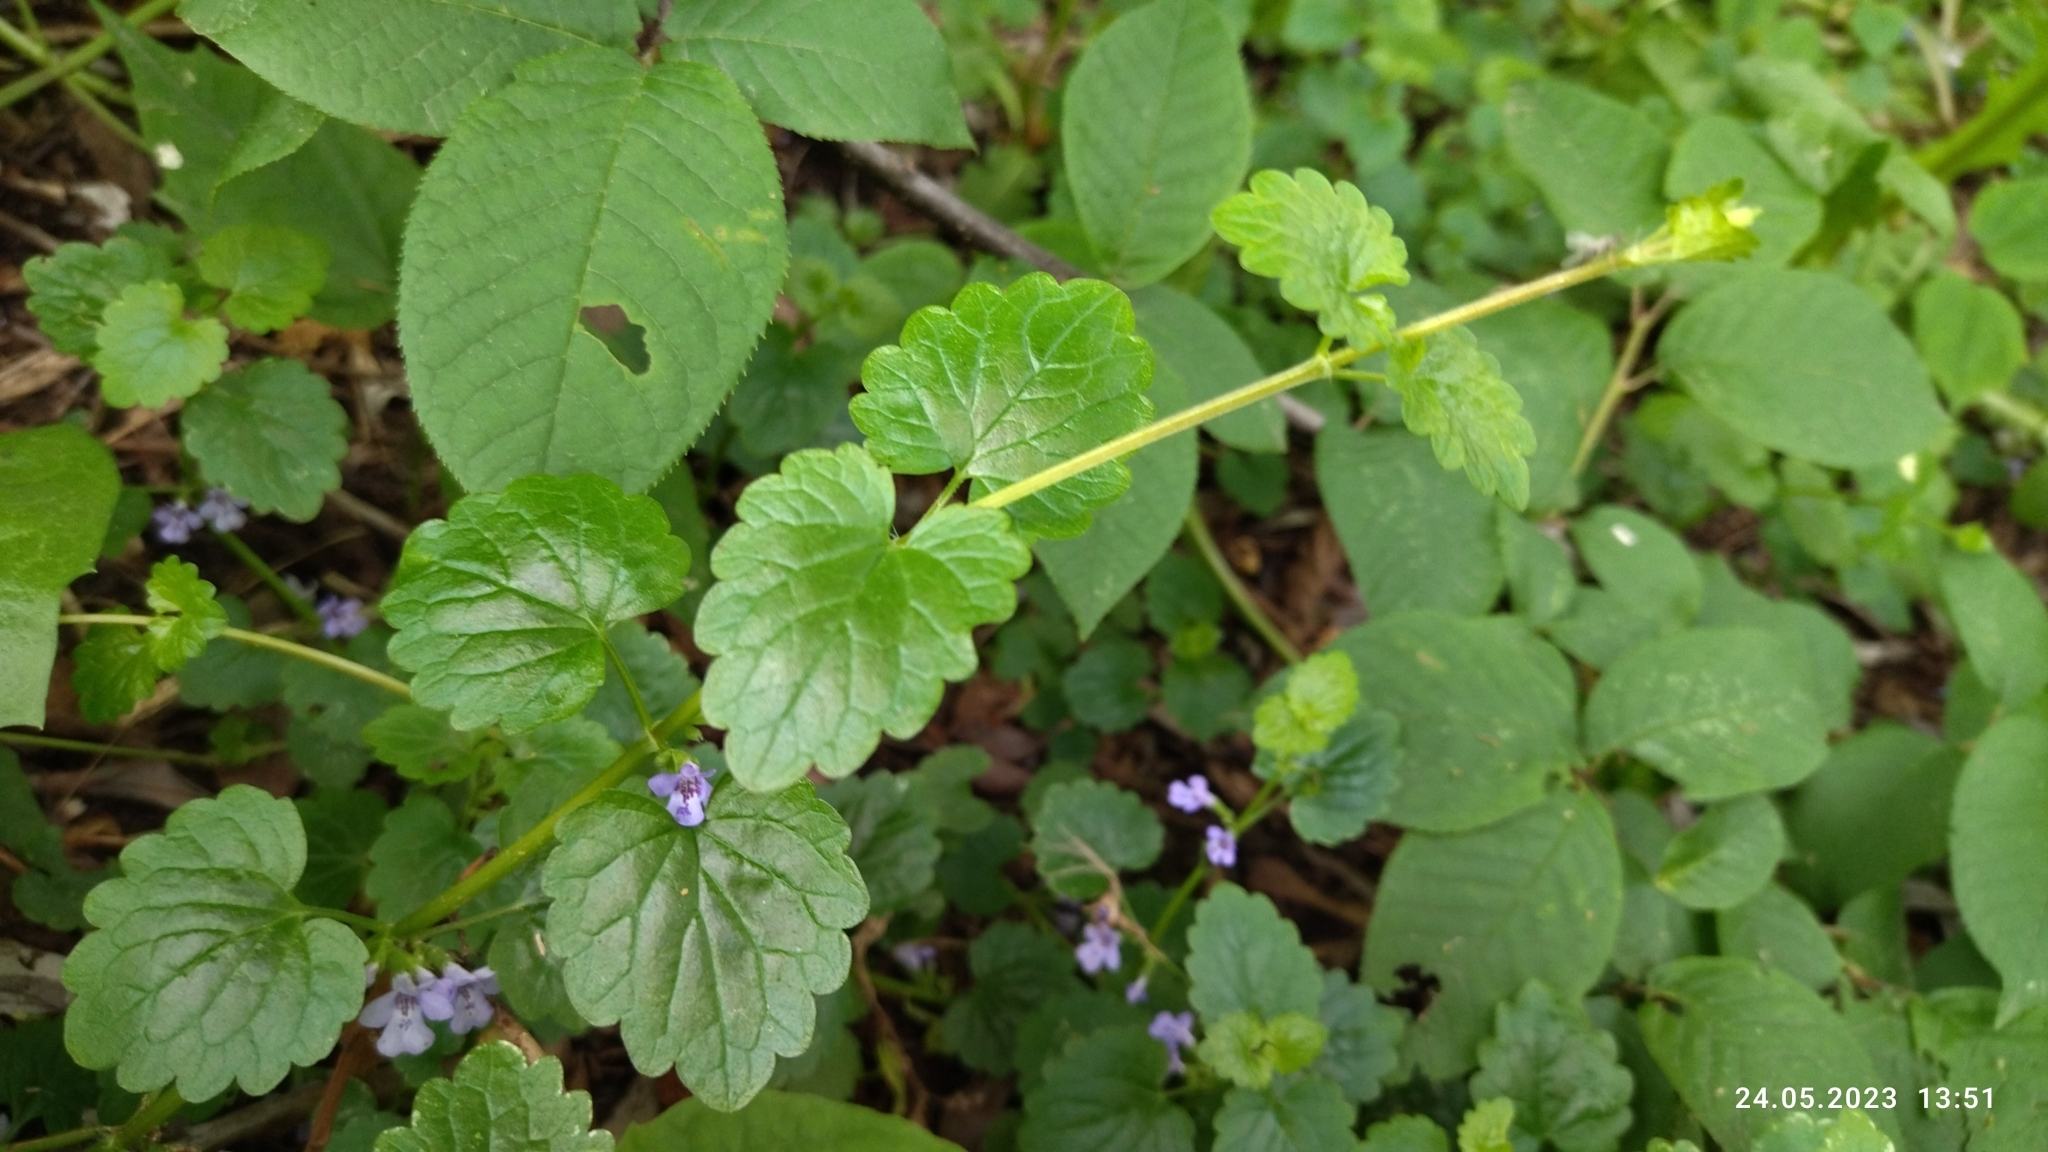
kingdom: Plantae
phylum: Tracheophyta
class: Magnoliopsida
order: Lamiales
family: Lamiaceae
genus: Glechoma
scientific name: Glechoma hederacea
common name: Ground ivy
